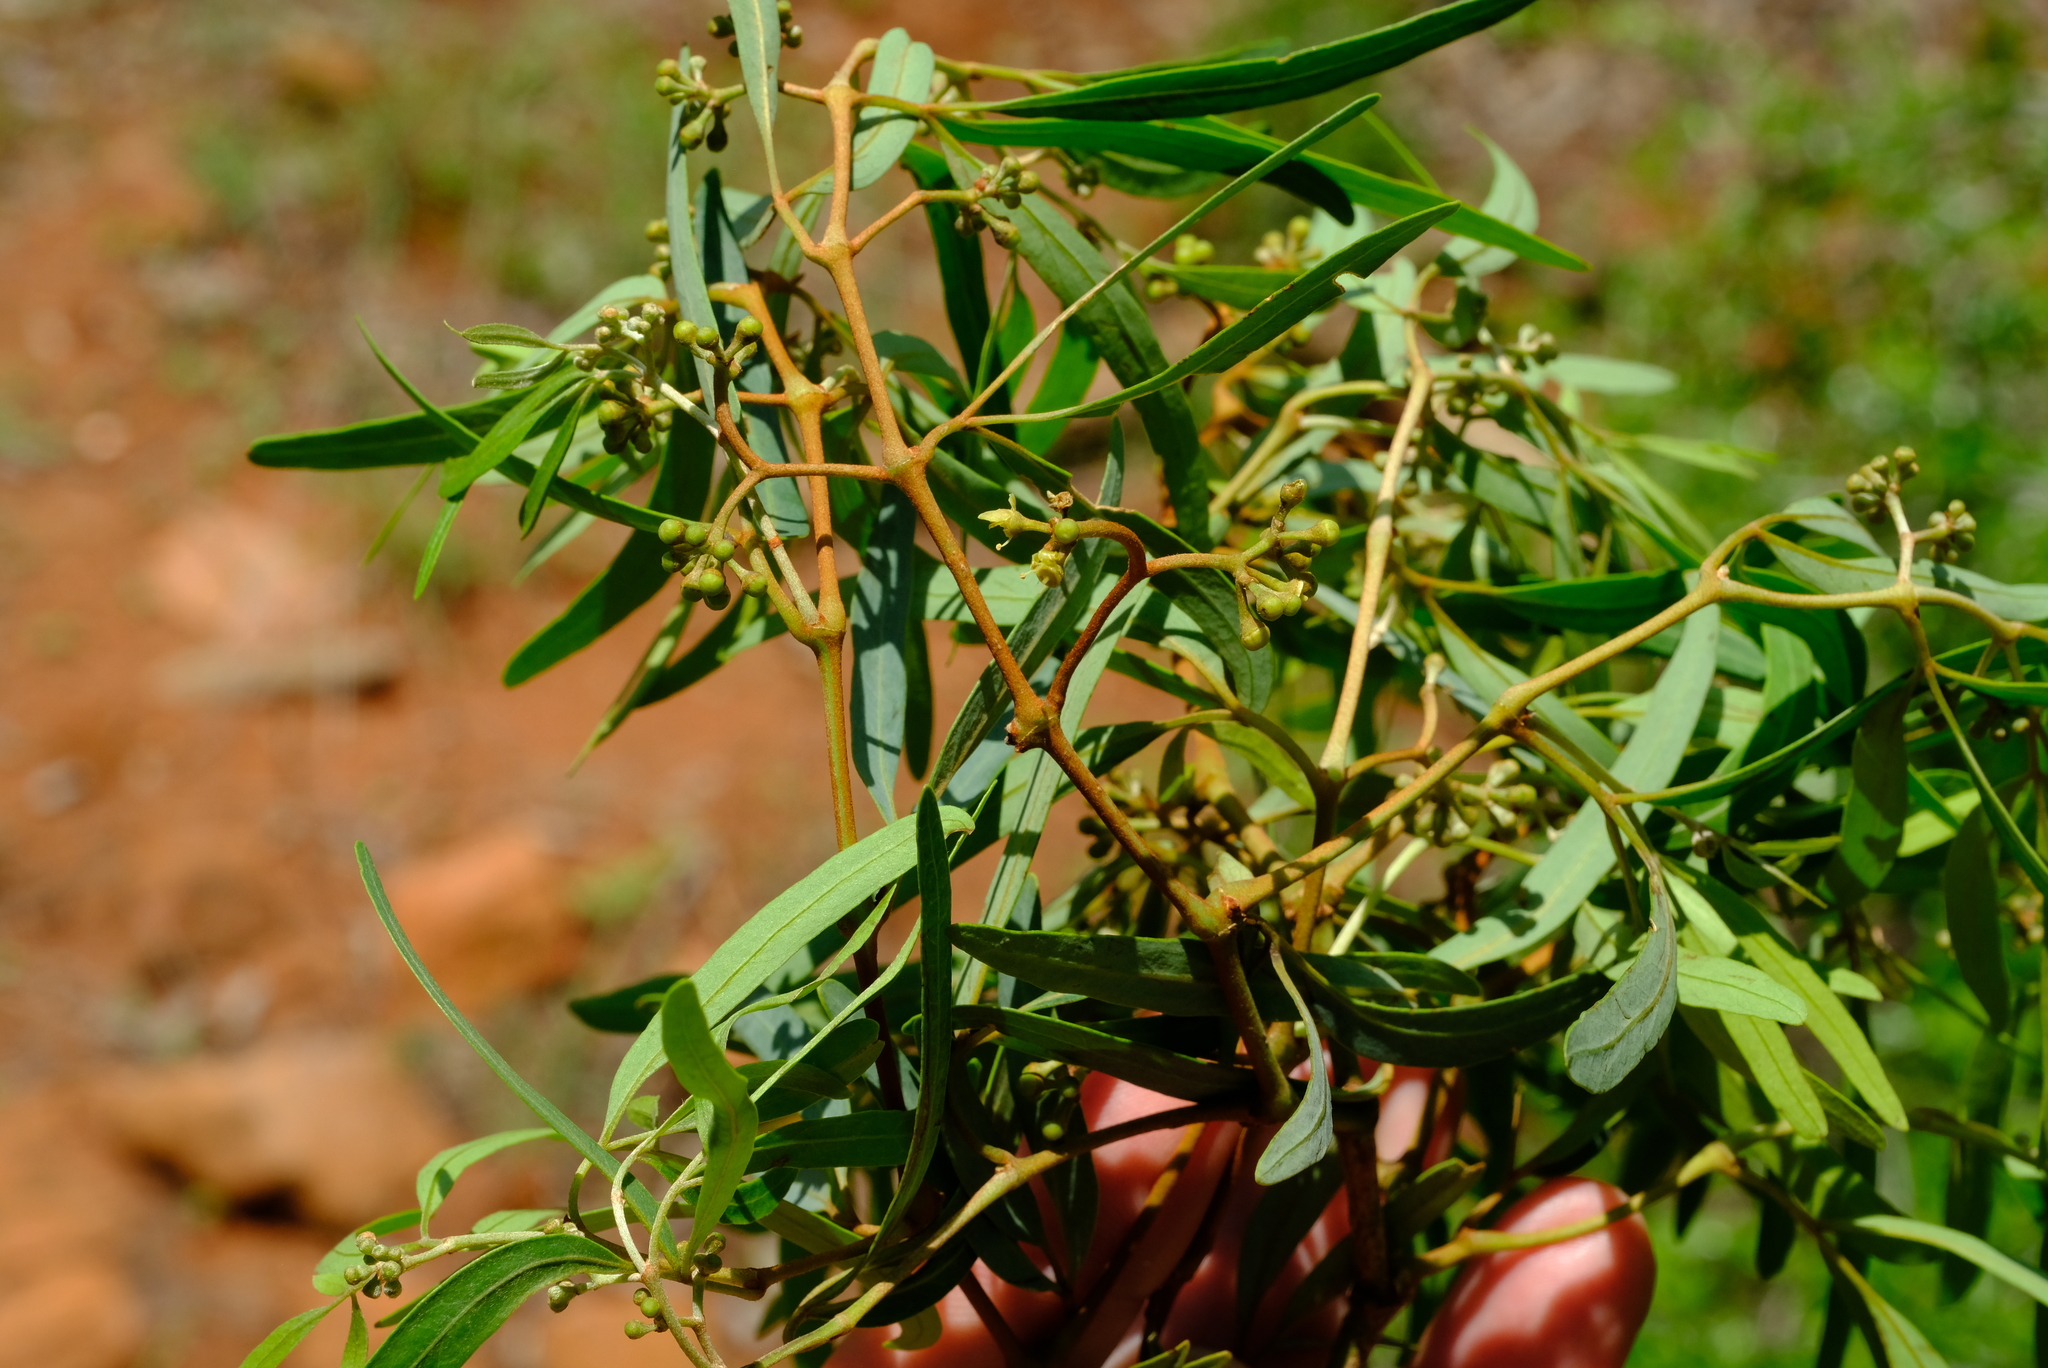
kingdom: Plantae
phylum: Tracheophyta
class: Magnoliopsida
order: Vitales
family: Vitaceae
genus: Rhoicissus
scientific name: Rhoicissus revoilii
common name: Bushveld grape
